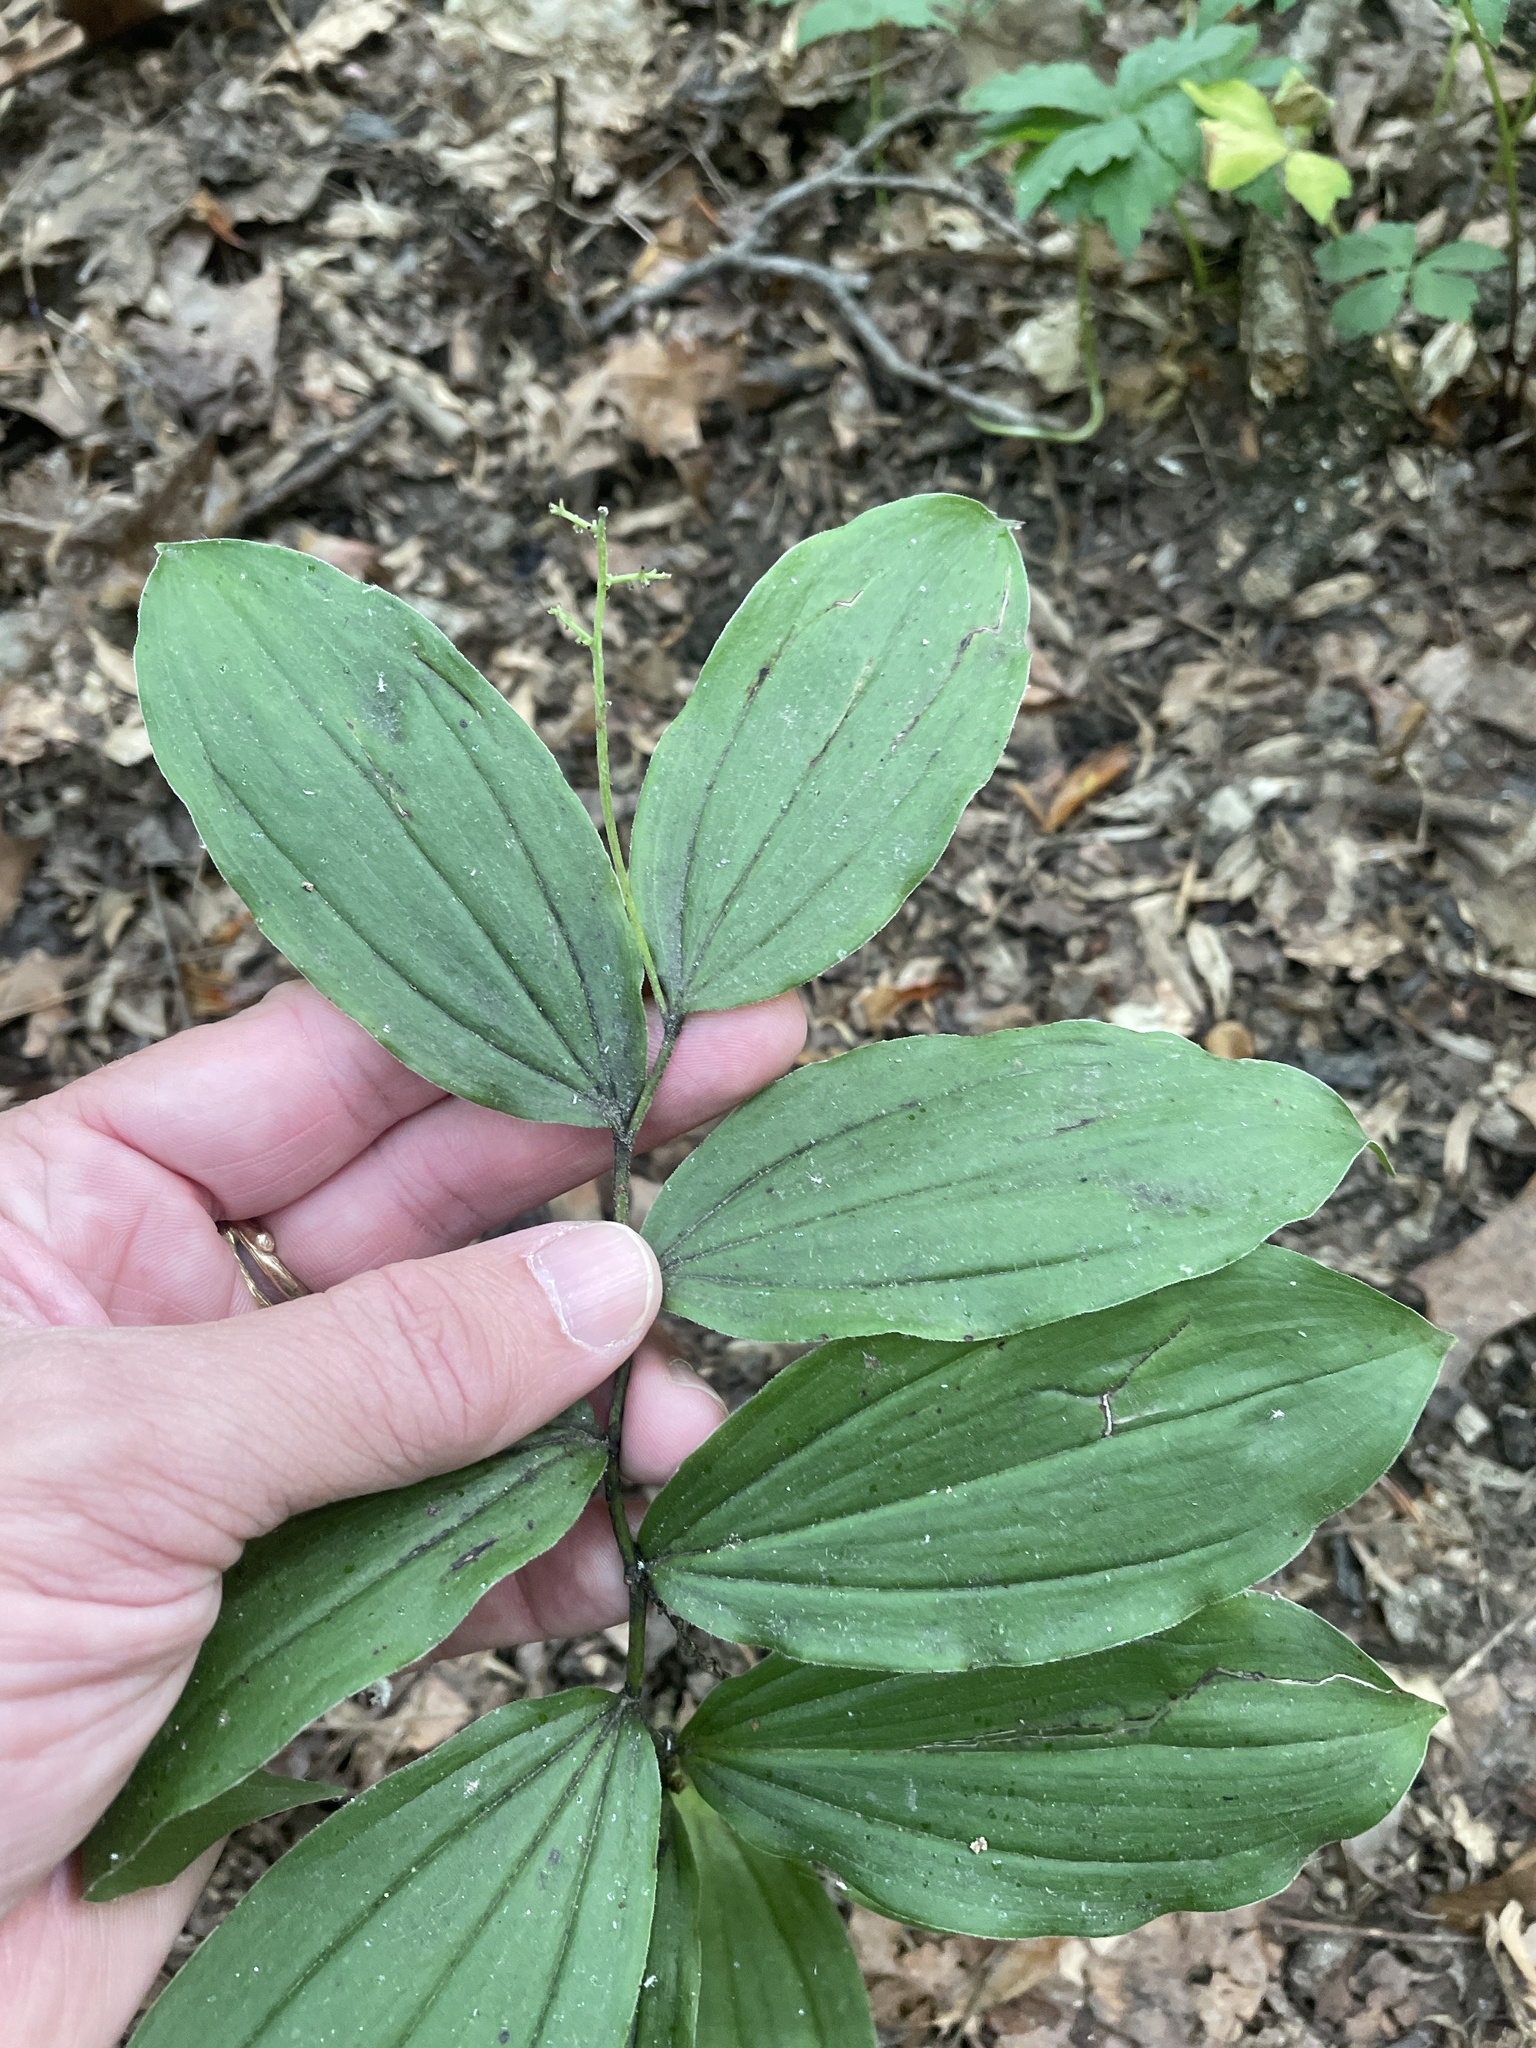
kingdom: Plantae
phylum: Tracheophyta
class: Liliopsida
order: Asparagales
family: Asparagaceae
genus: Maianthemum
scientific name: Maianthemum racemosum
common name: False spikenard
